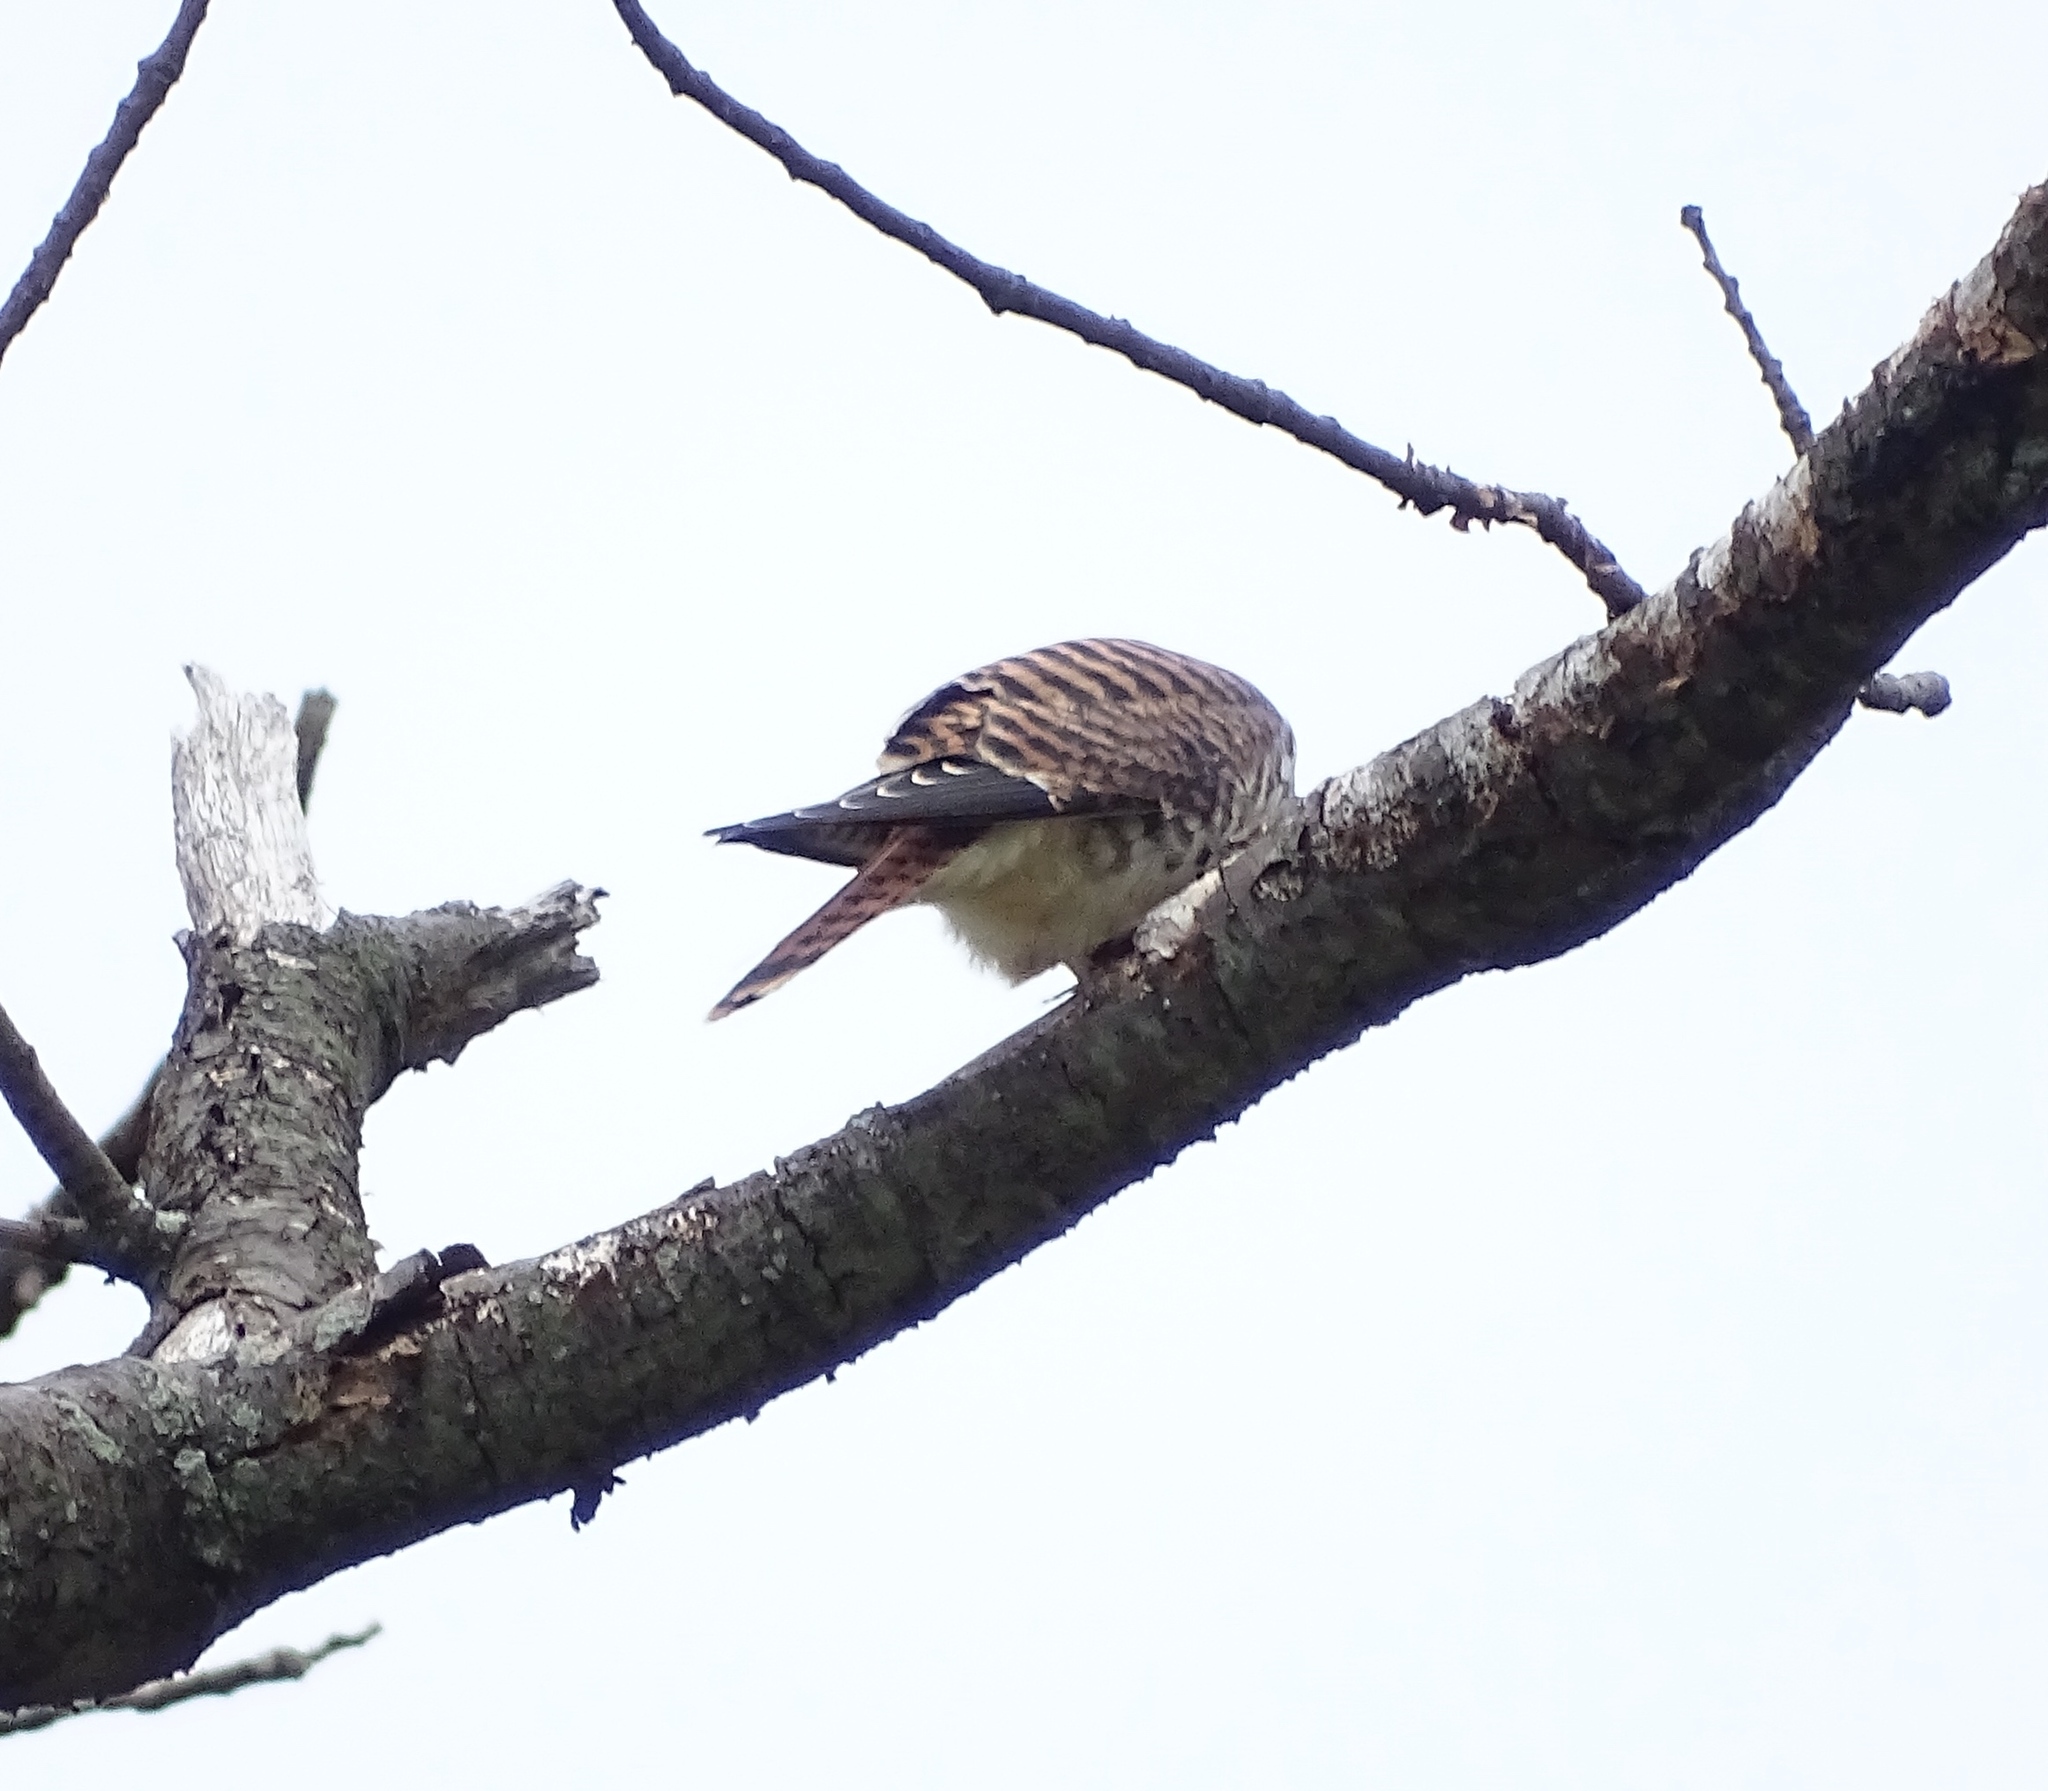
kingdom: Animalia
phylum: Chordata
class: Aves
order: Falconiformes
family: Falconidae
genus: Falco
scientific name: Falco sparverius
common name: American kestrel
